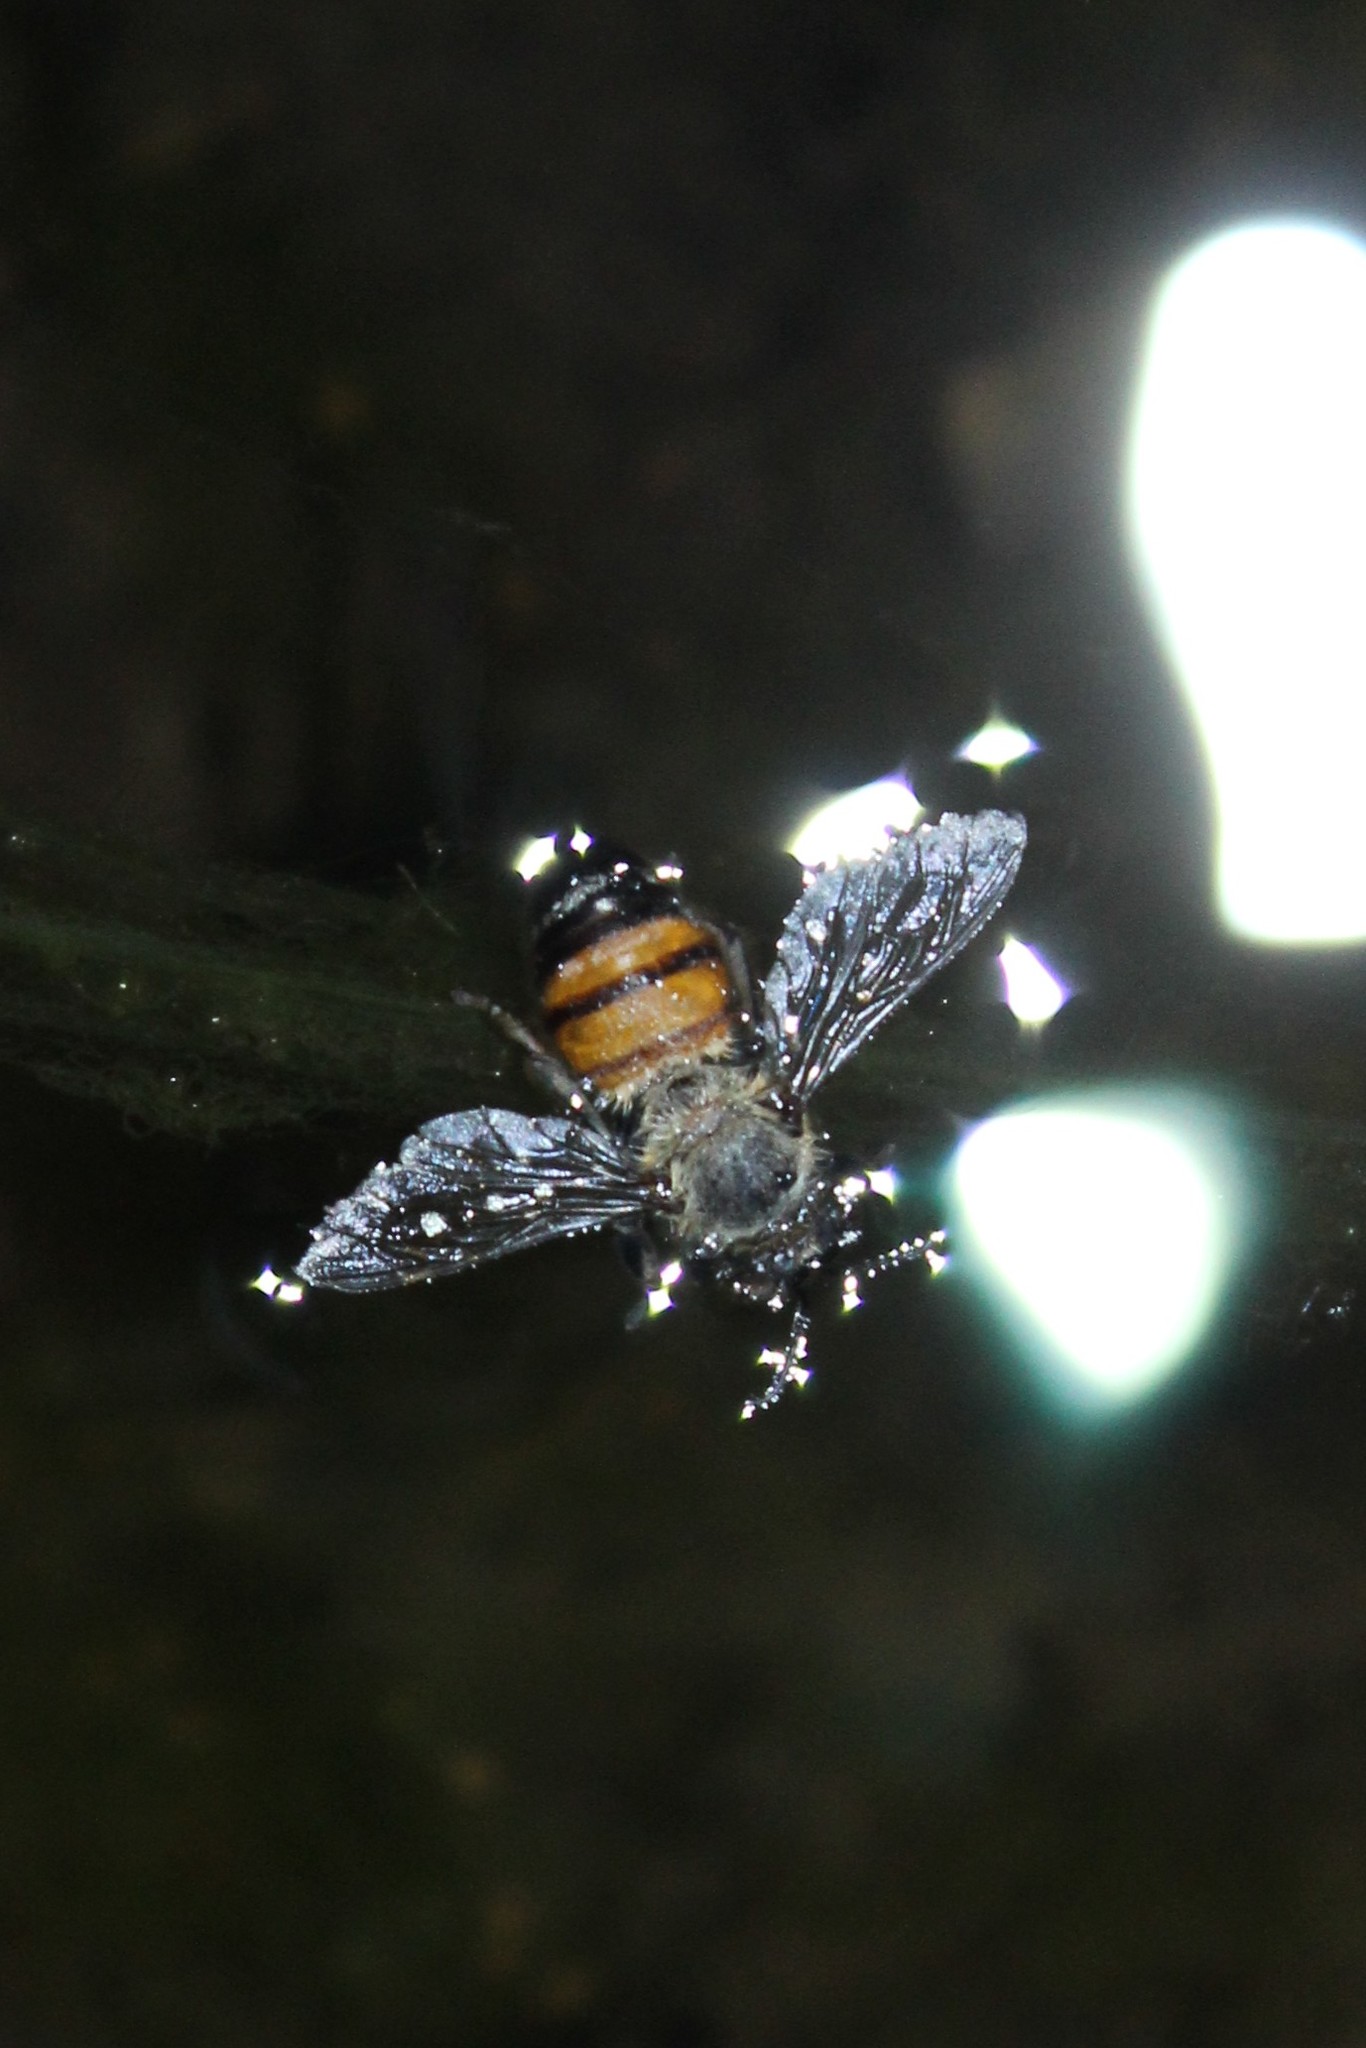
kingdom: Animalia
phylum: Arthropoda
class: Insecta
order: Hymenoptera
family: Apidae
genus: Apis
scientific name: Apis mellifera
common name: Honey bee
